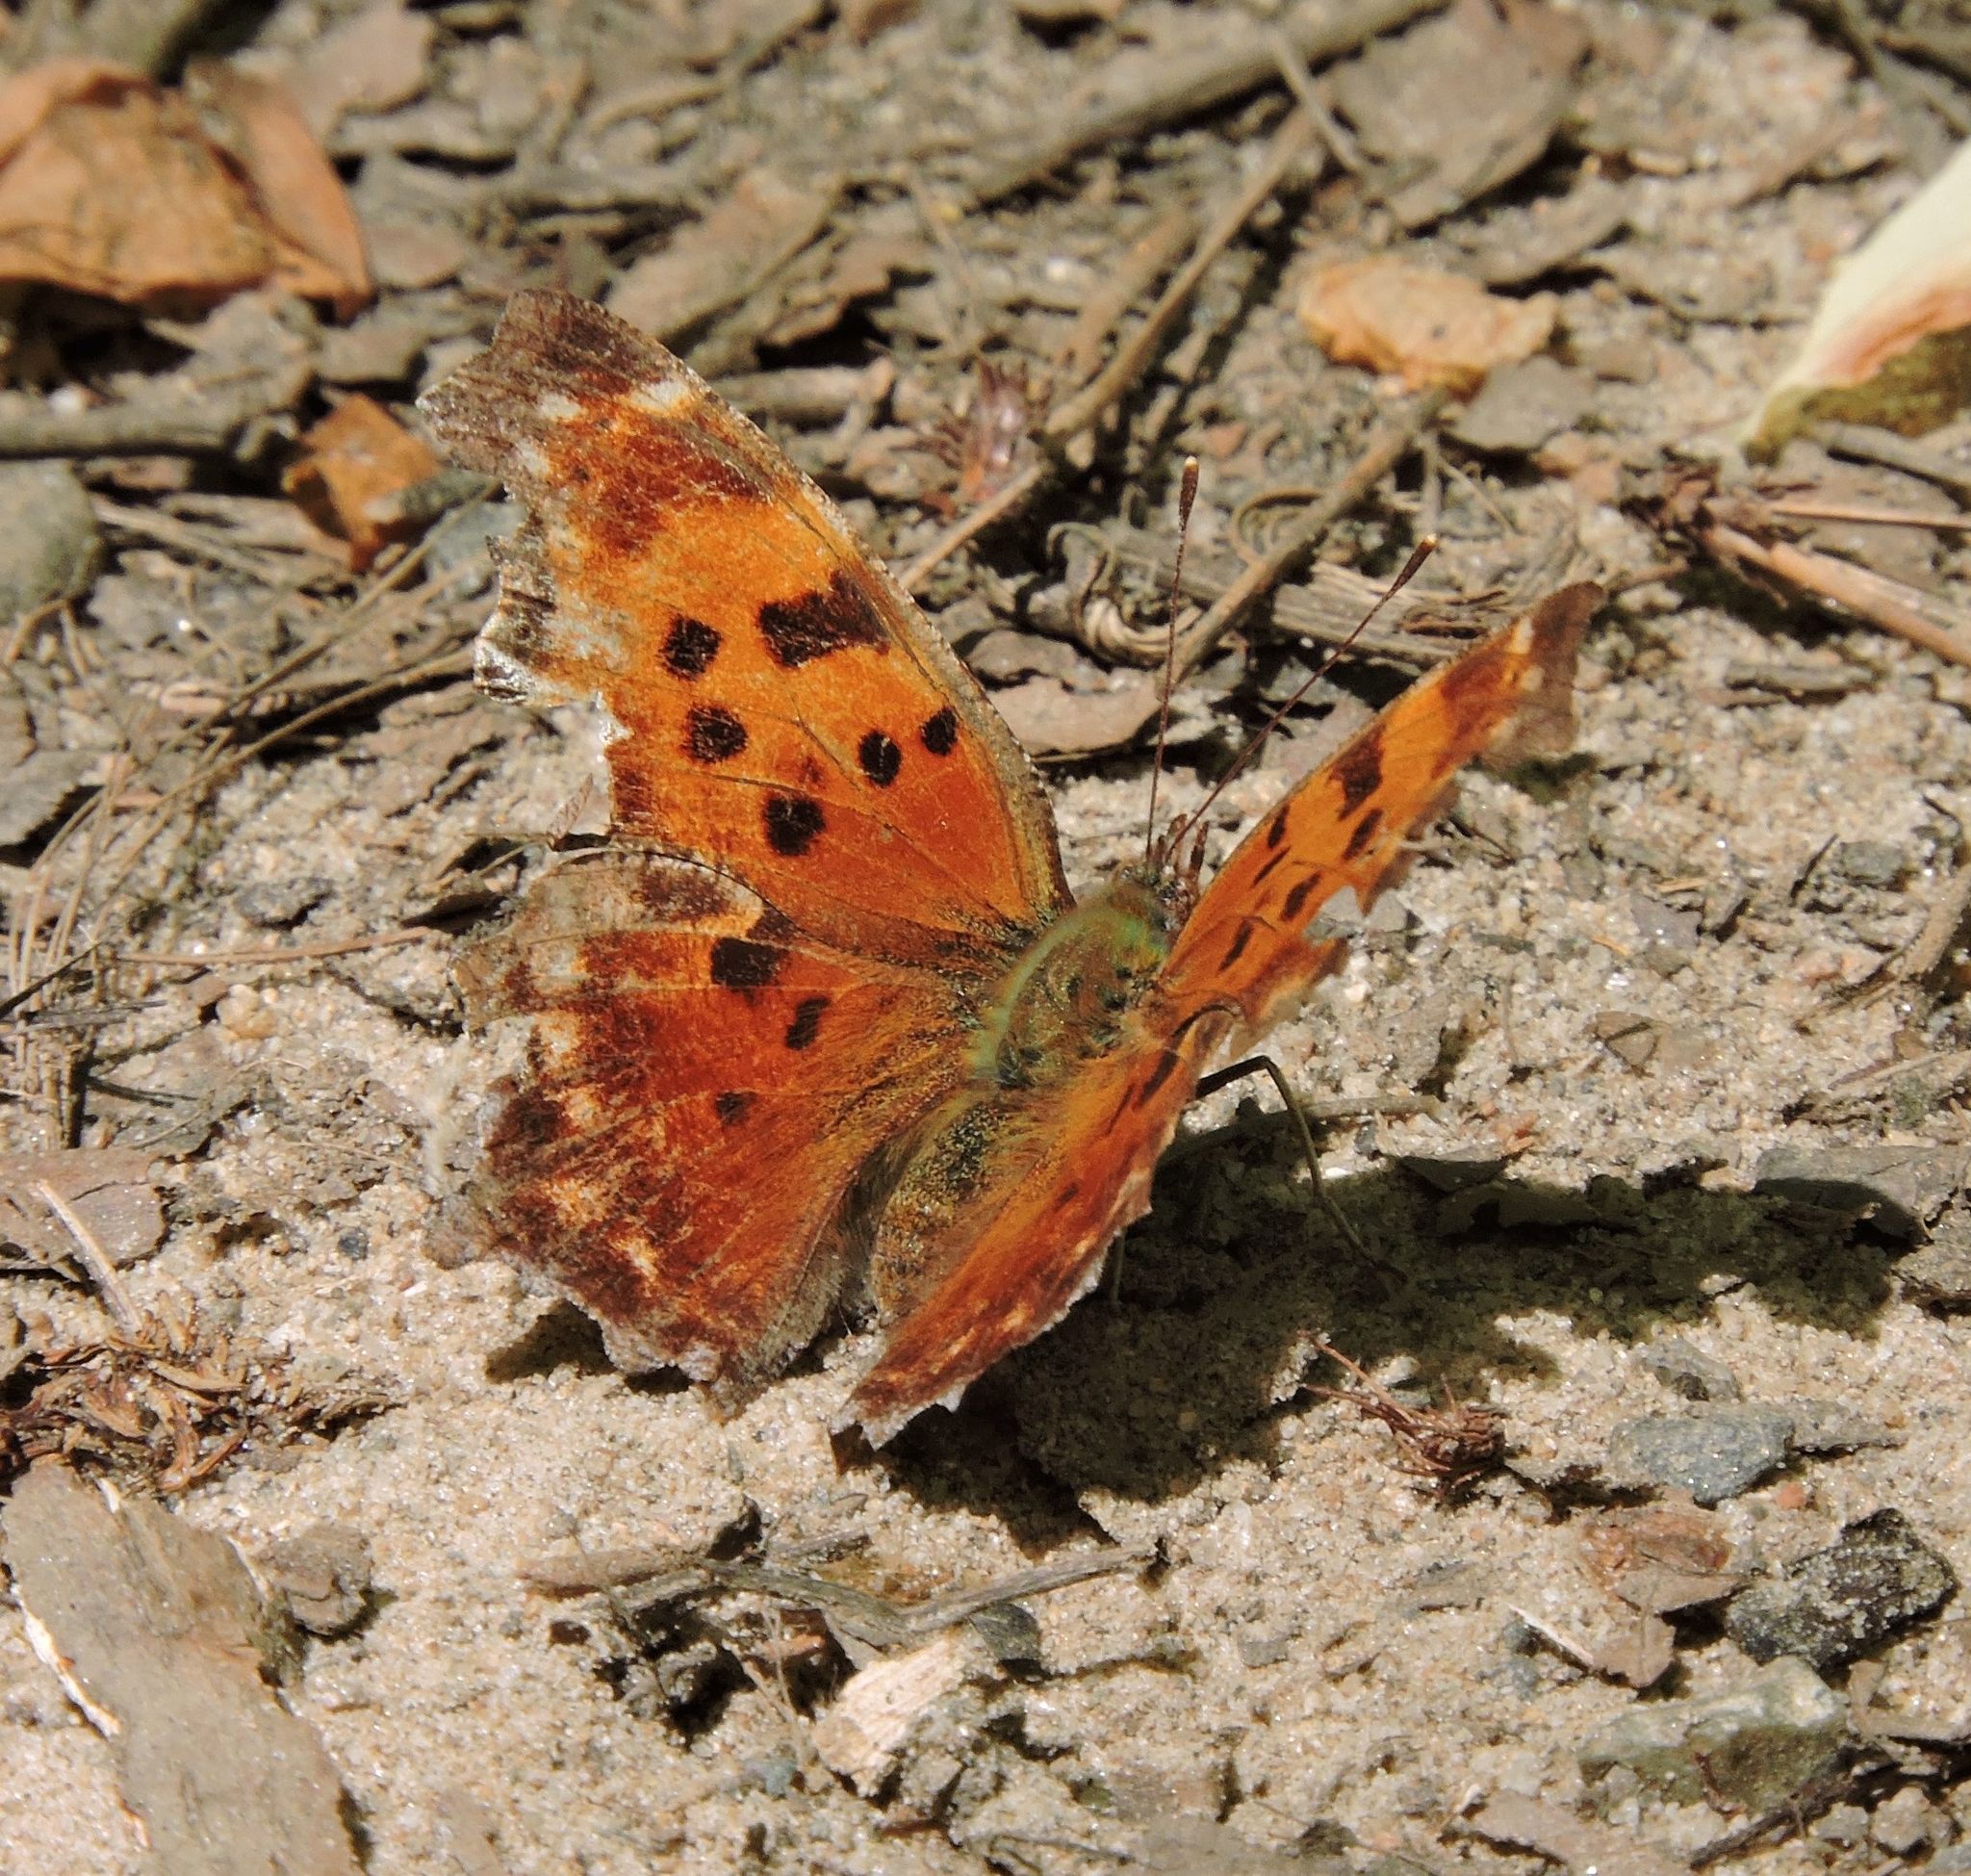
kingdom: Animalia
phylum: Arthropoda
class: Insecta
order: Lepidoptera
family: Nymphalidae
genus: Polygonia
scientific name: Polygonia comma
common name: Eastern comma
